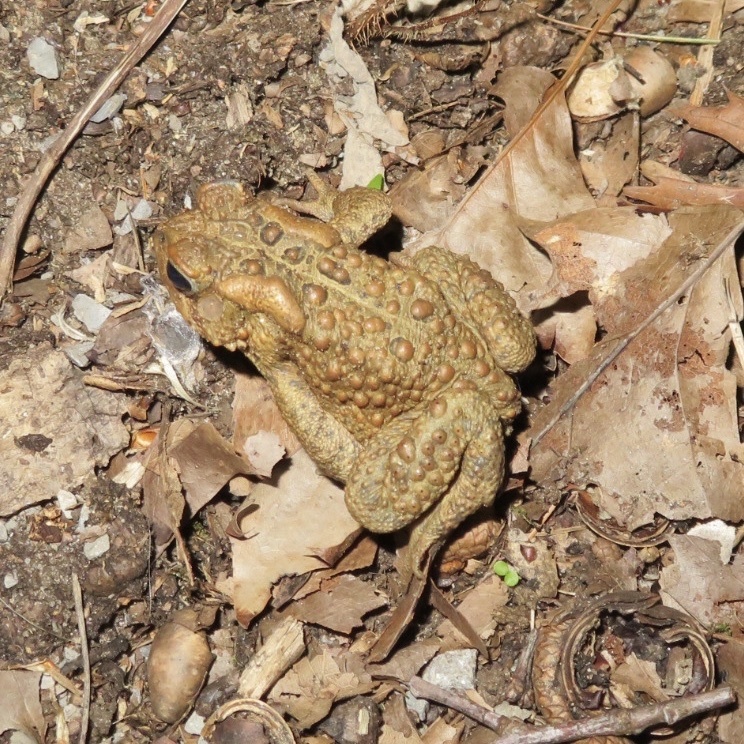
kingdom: Animalia
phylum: Chordata
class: Amphibia
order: Anura
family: Bufonidae
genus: Anaxyrus
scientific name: Anaxyrus americanus
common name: American toad
